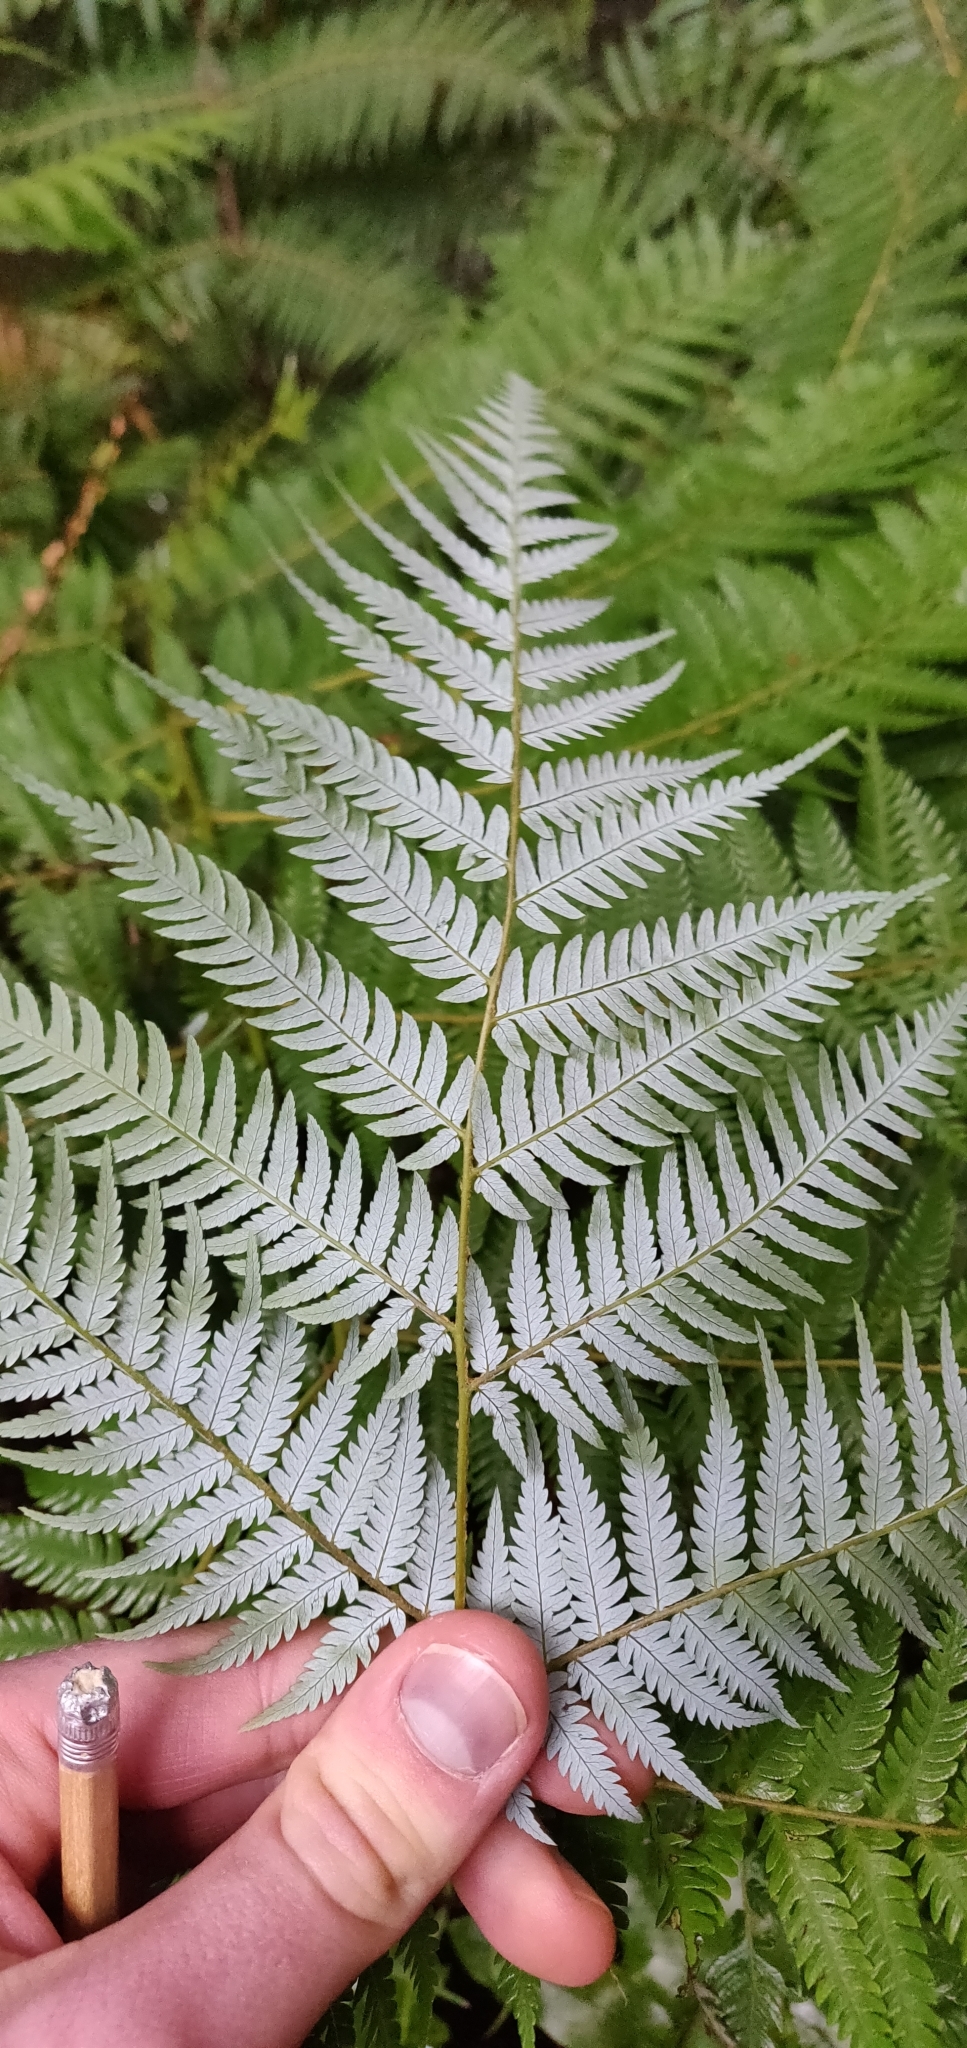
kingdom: Plantae
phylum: Tracheophyta
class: Polypodiopsida
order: Cyatheales
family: Cyatheaceae
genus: Alsophila
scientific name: Alsophila dealbata
